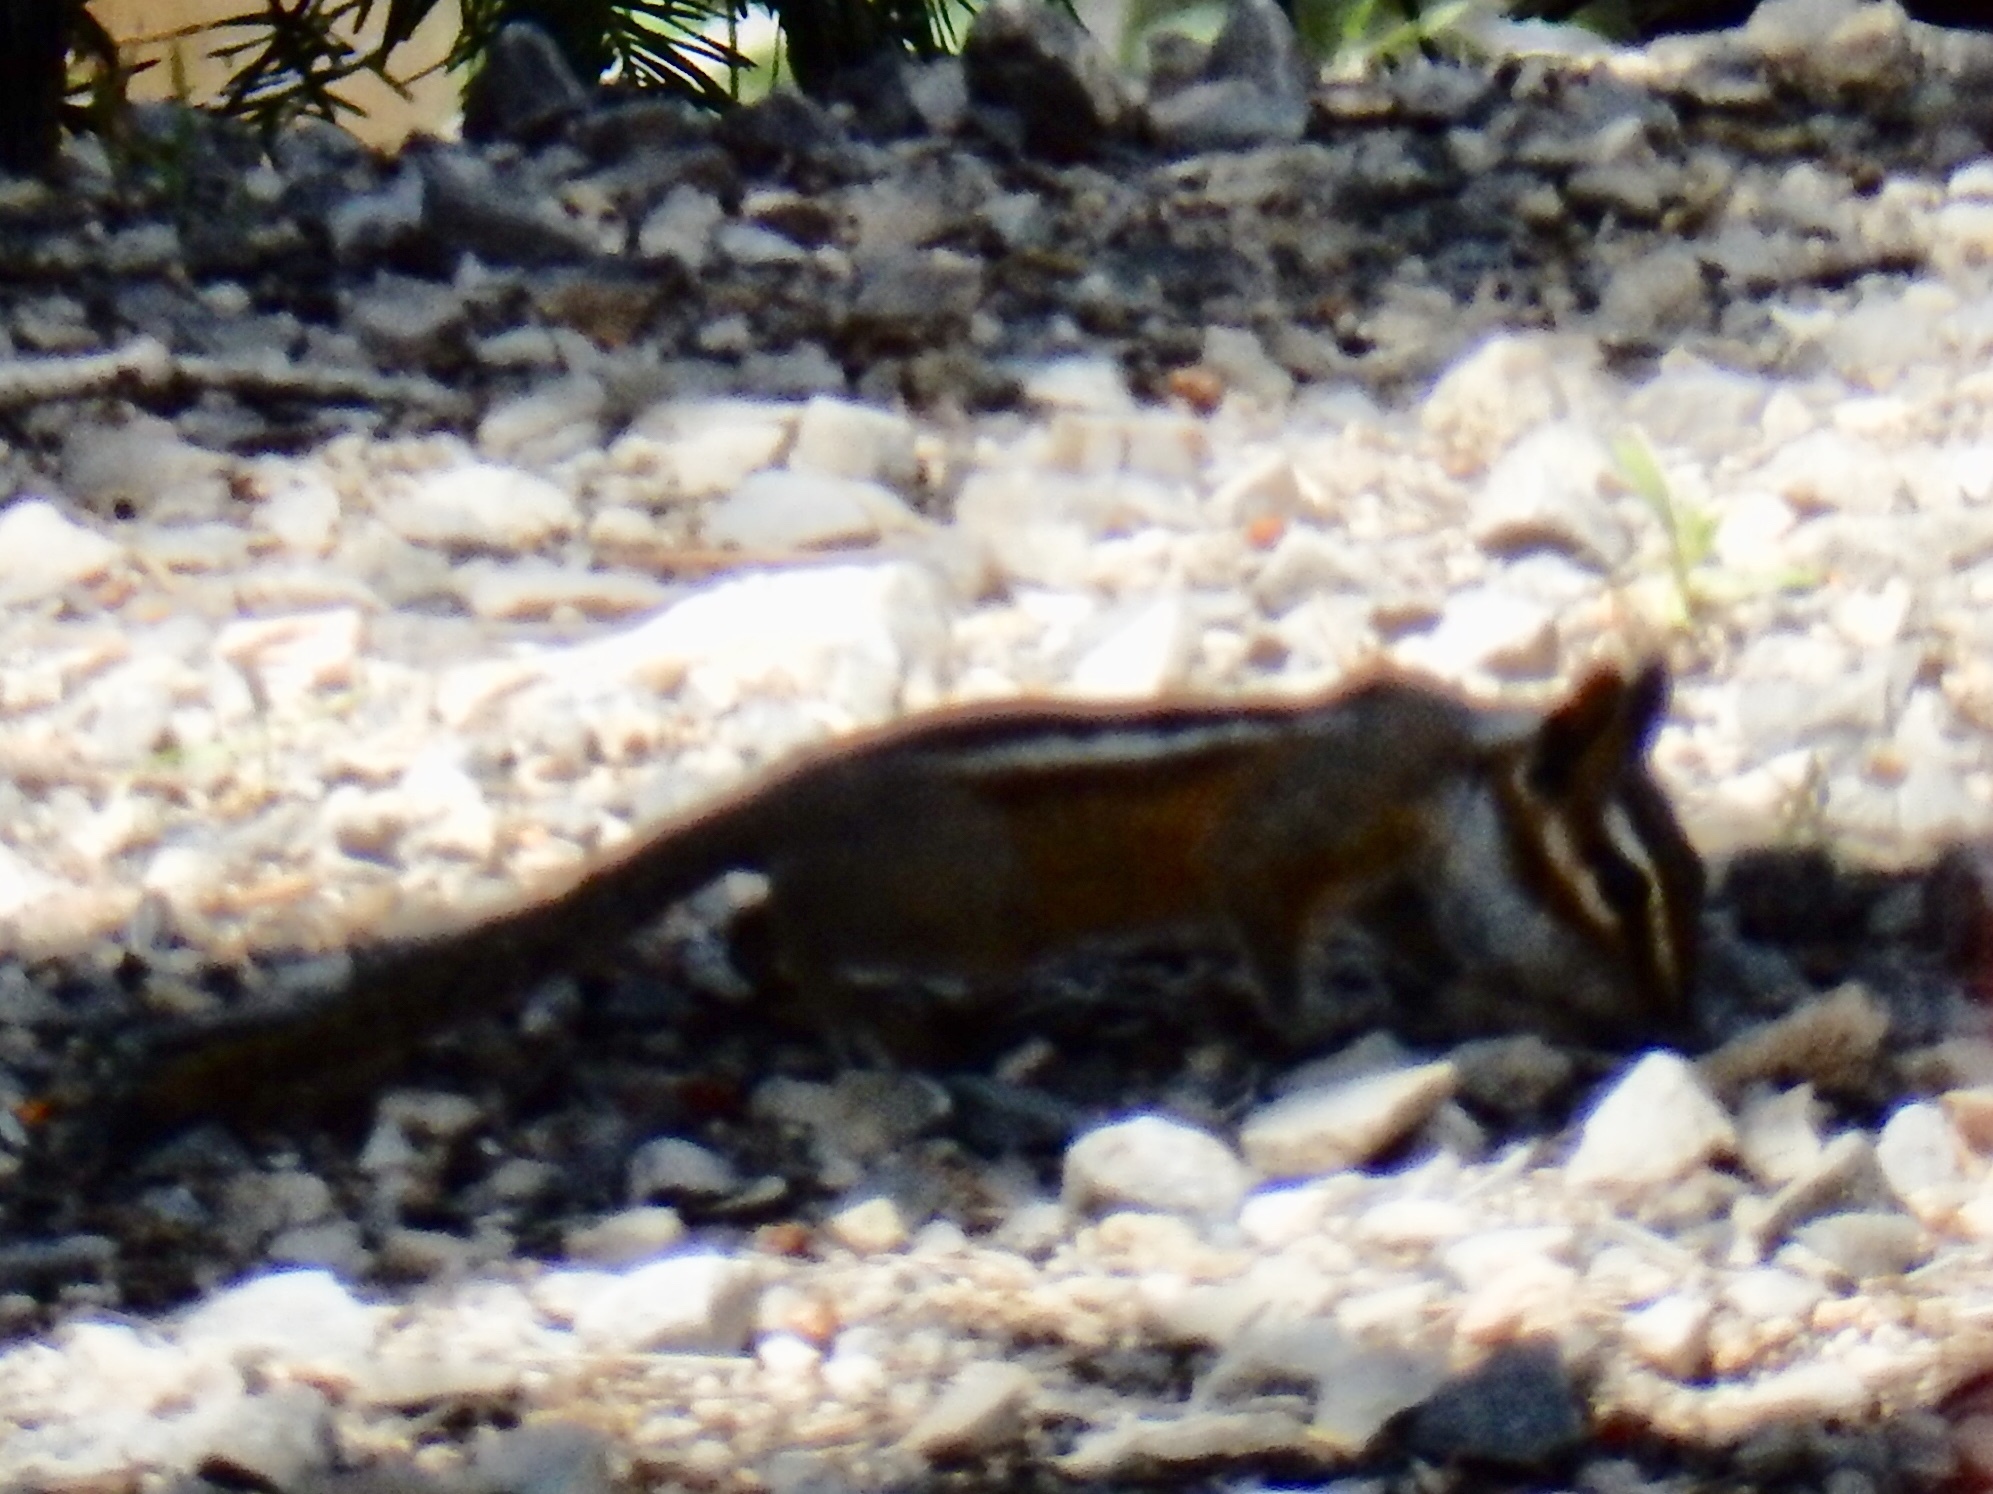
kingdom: Animalia
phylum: Chordata
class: Mammalia
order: Rodentia
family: Sciuridae
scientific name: Sciuridae
